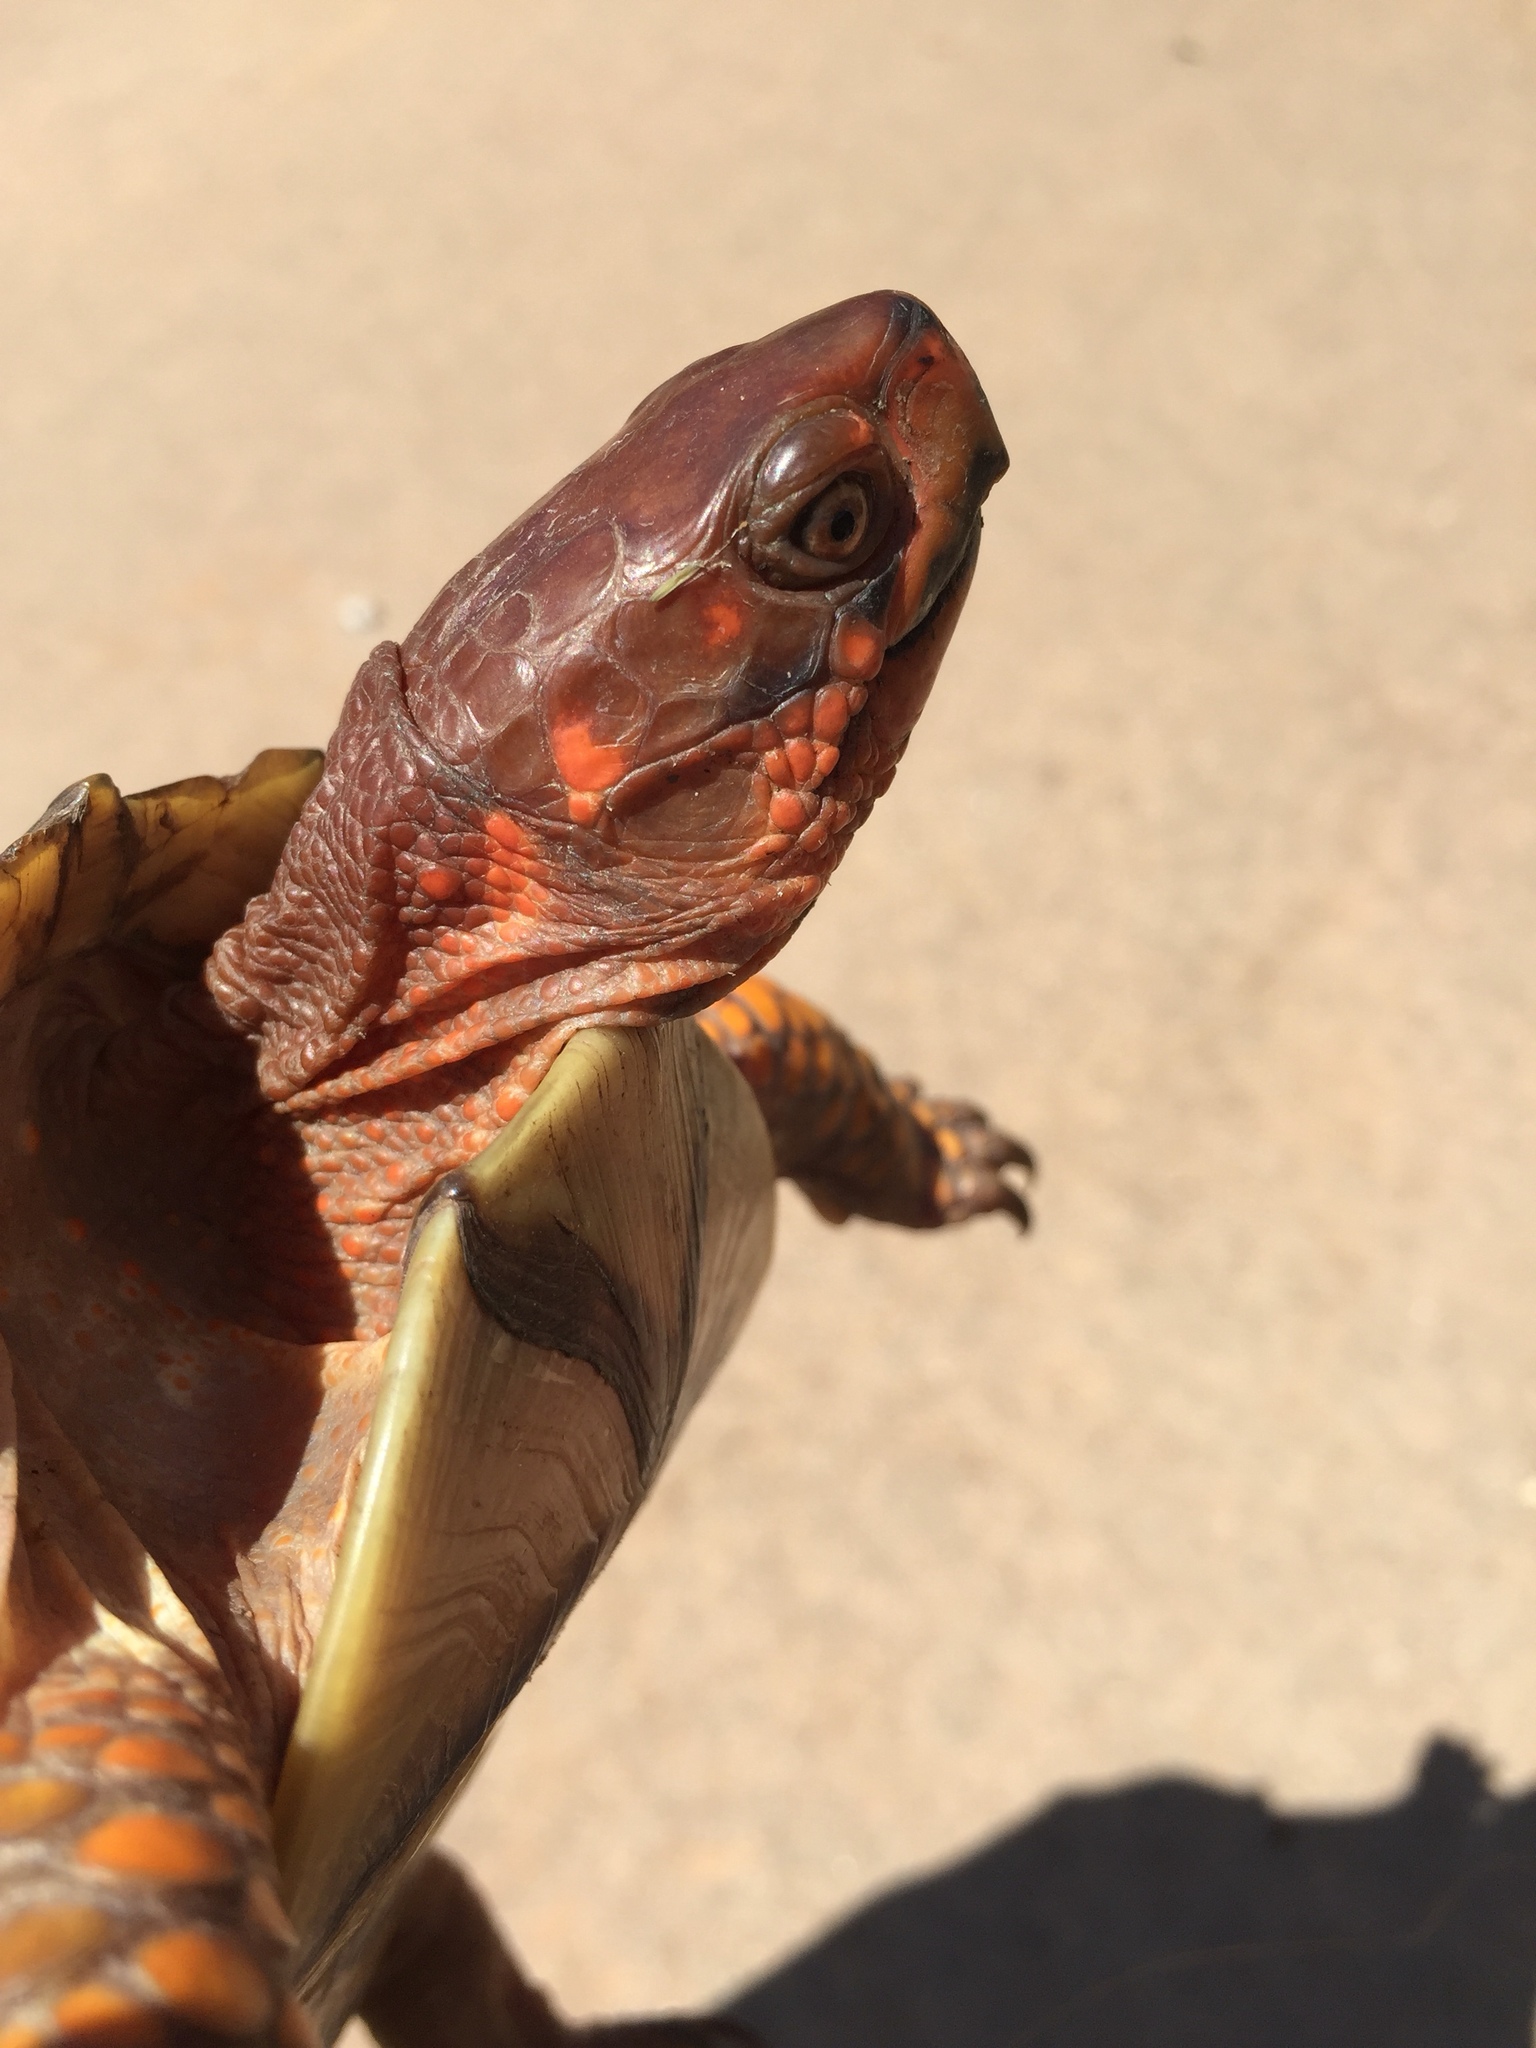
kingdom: Animalia
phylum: Chordata
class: Testudines
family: Emydidae
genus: Terrapene
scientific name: Terrapene carolina
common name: Common box turtle
